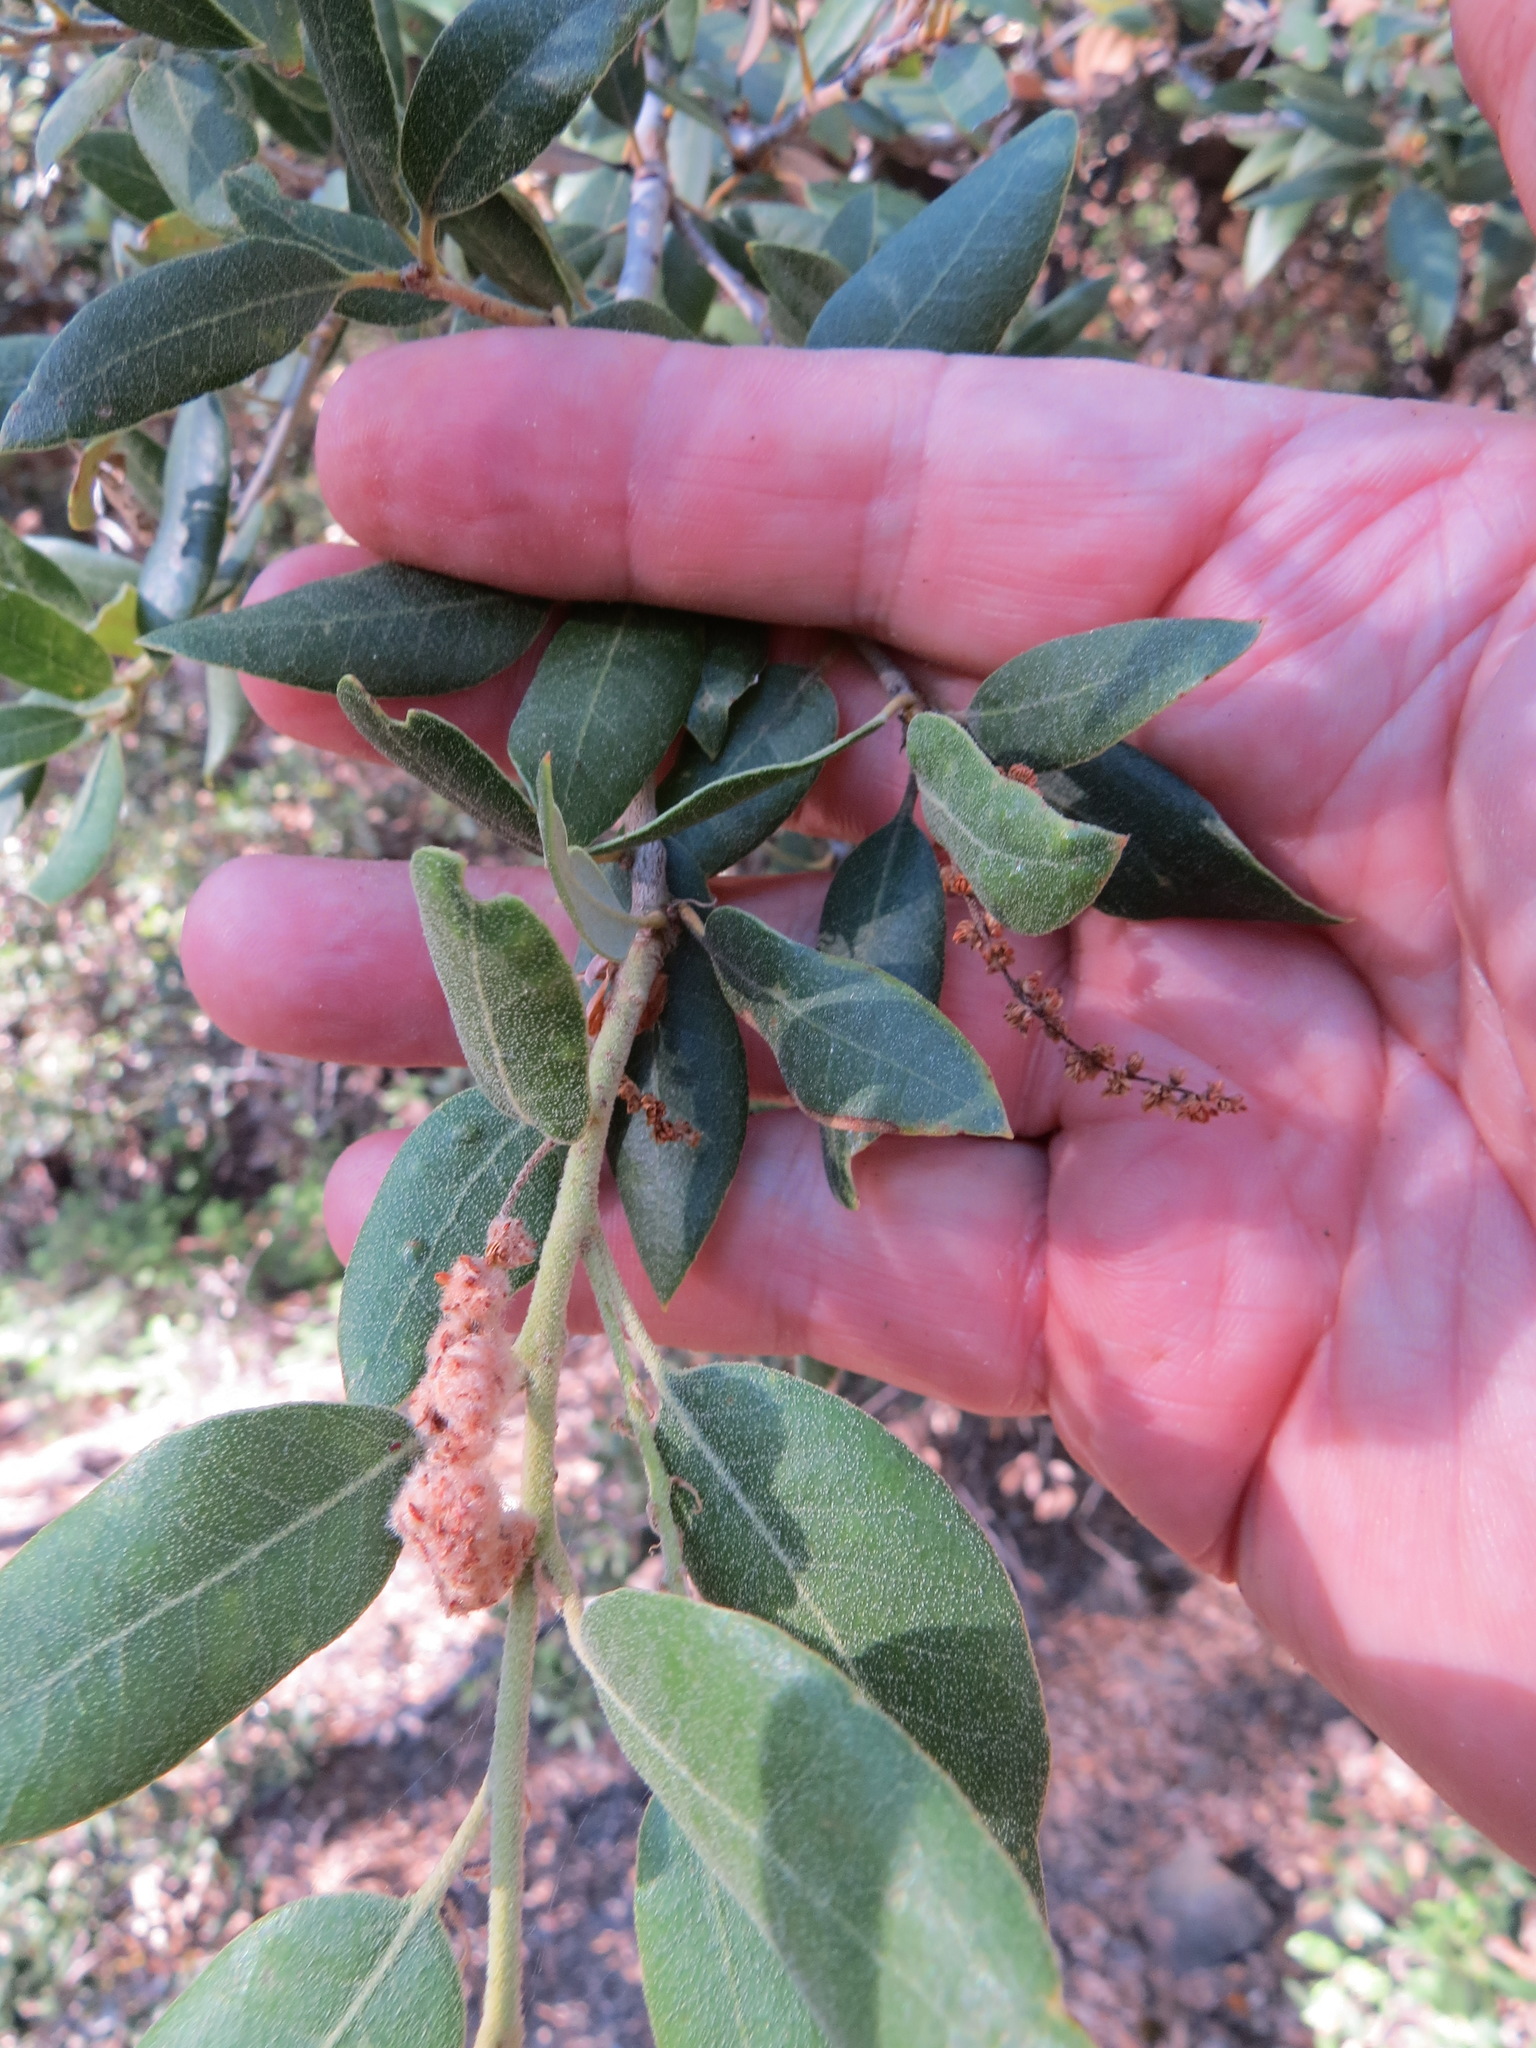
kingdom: Animalia
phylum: Arthropoda
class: Insecta
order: Hymenoptera
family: Cynipidae
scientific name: Cynipidae
